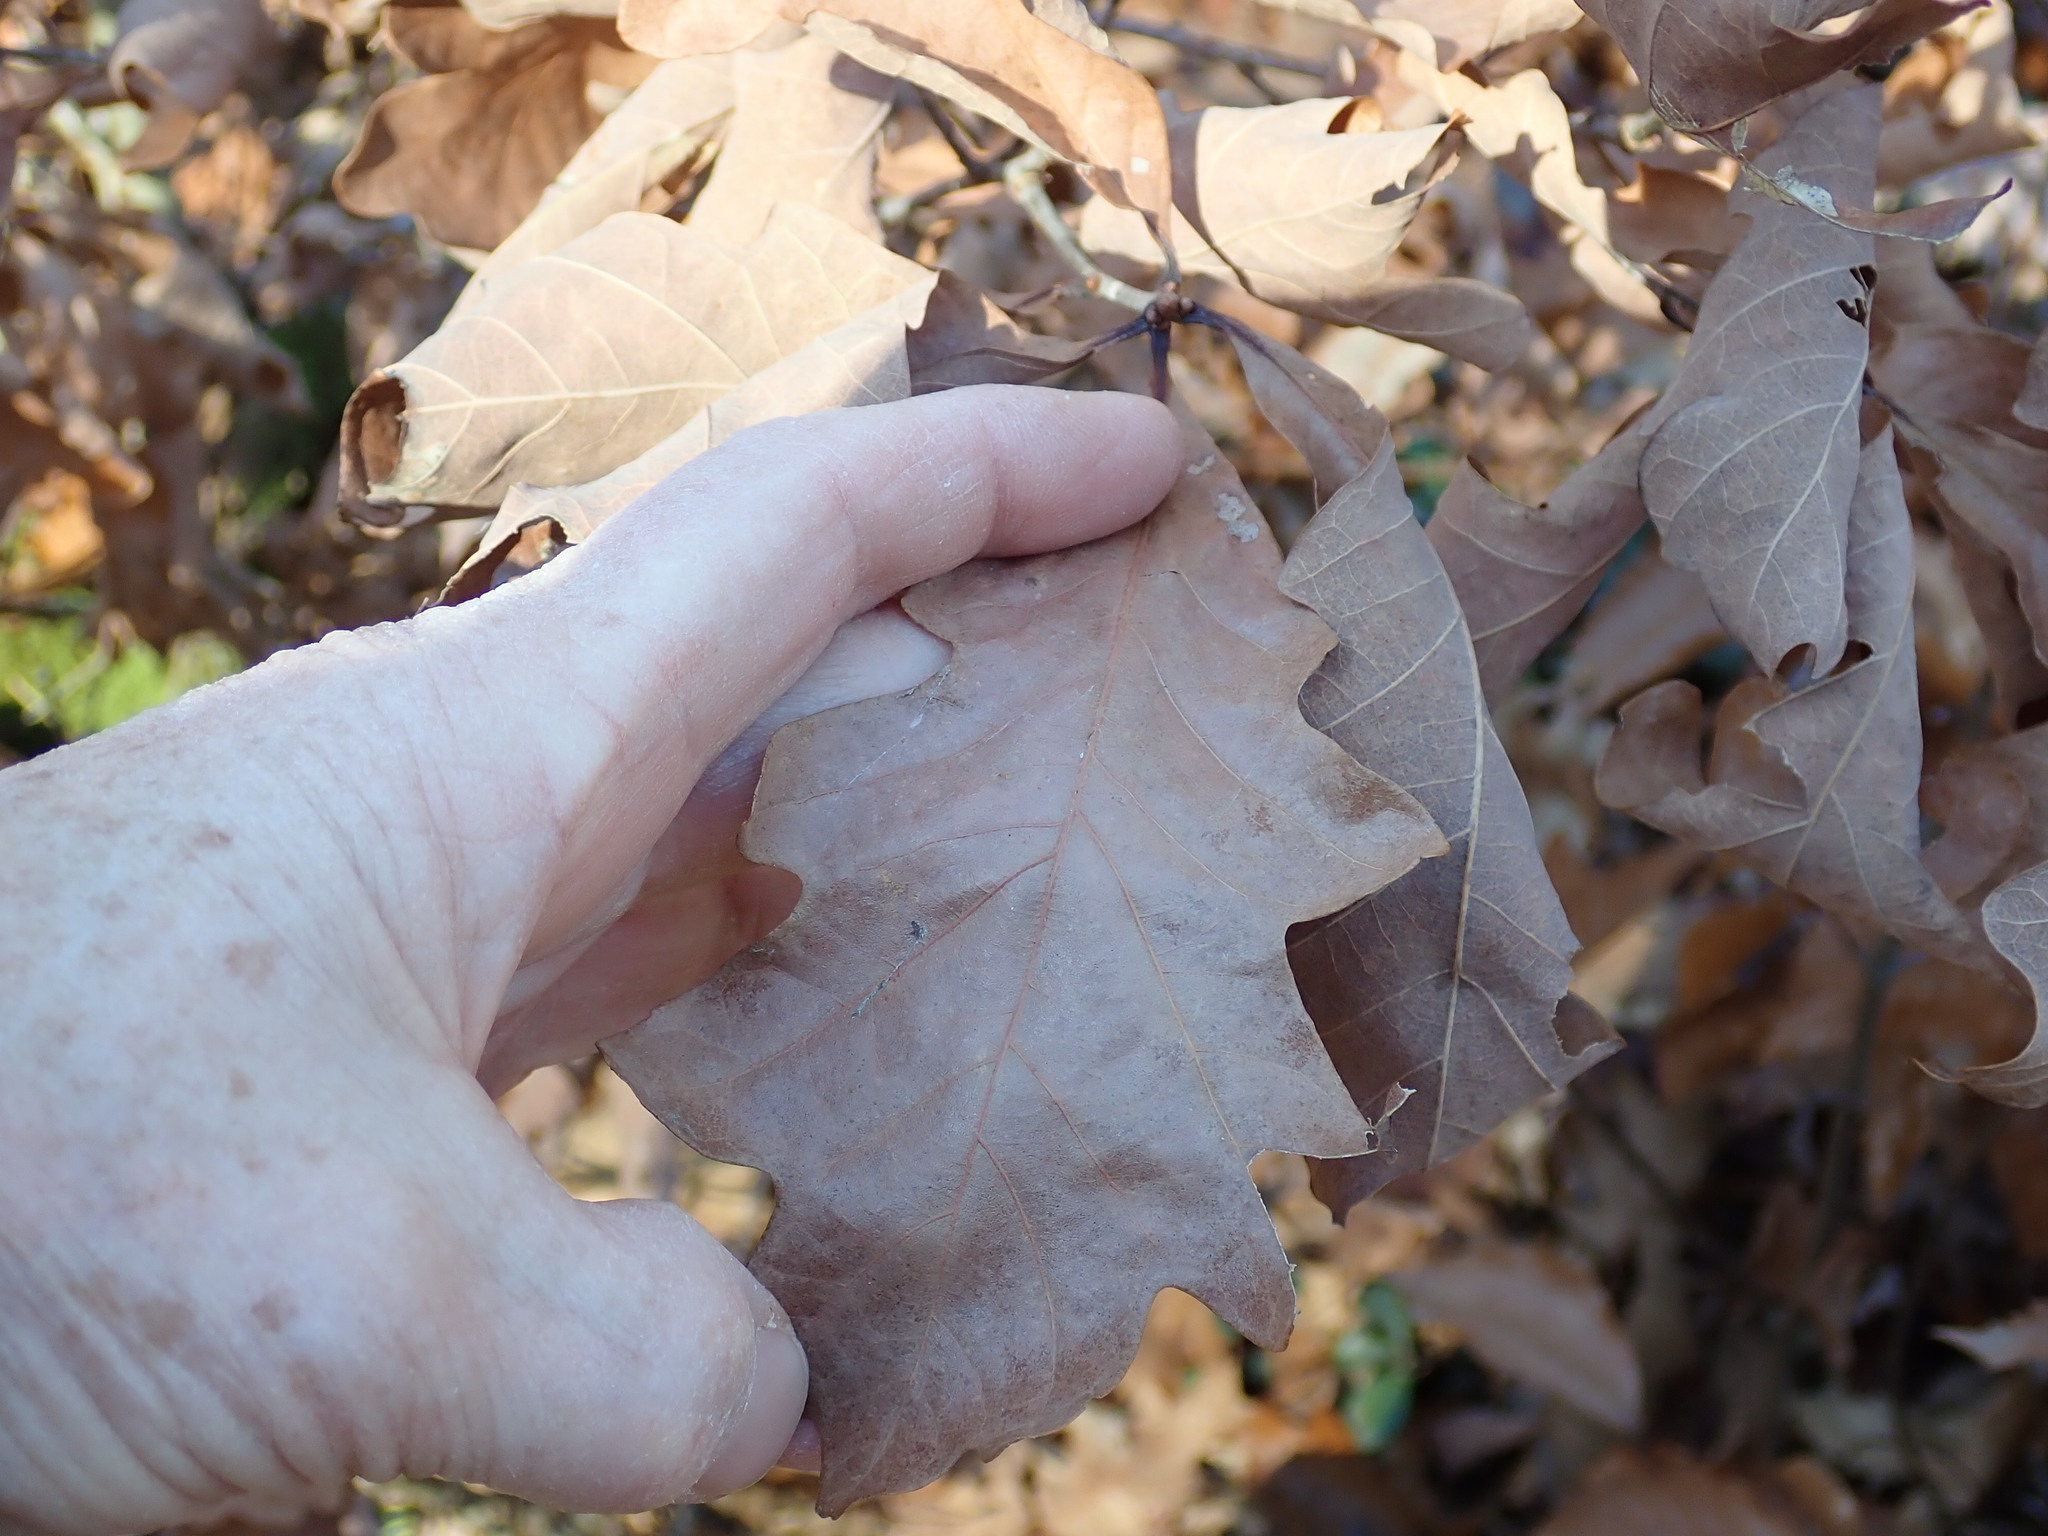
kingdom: Plantae
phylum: Tracheophyta
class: Magnoliopsida
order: Fagales
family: Fagaceae
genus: Quercus
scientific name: Quercus alba
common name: White oak
